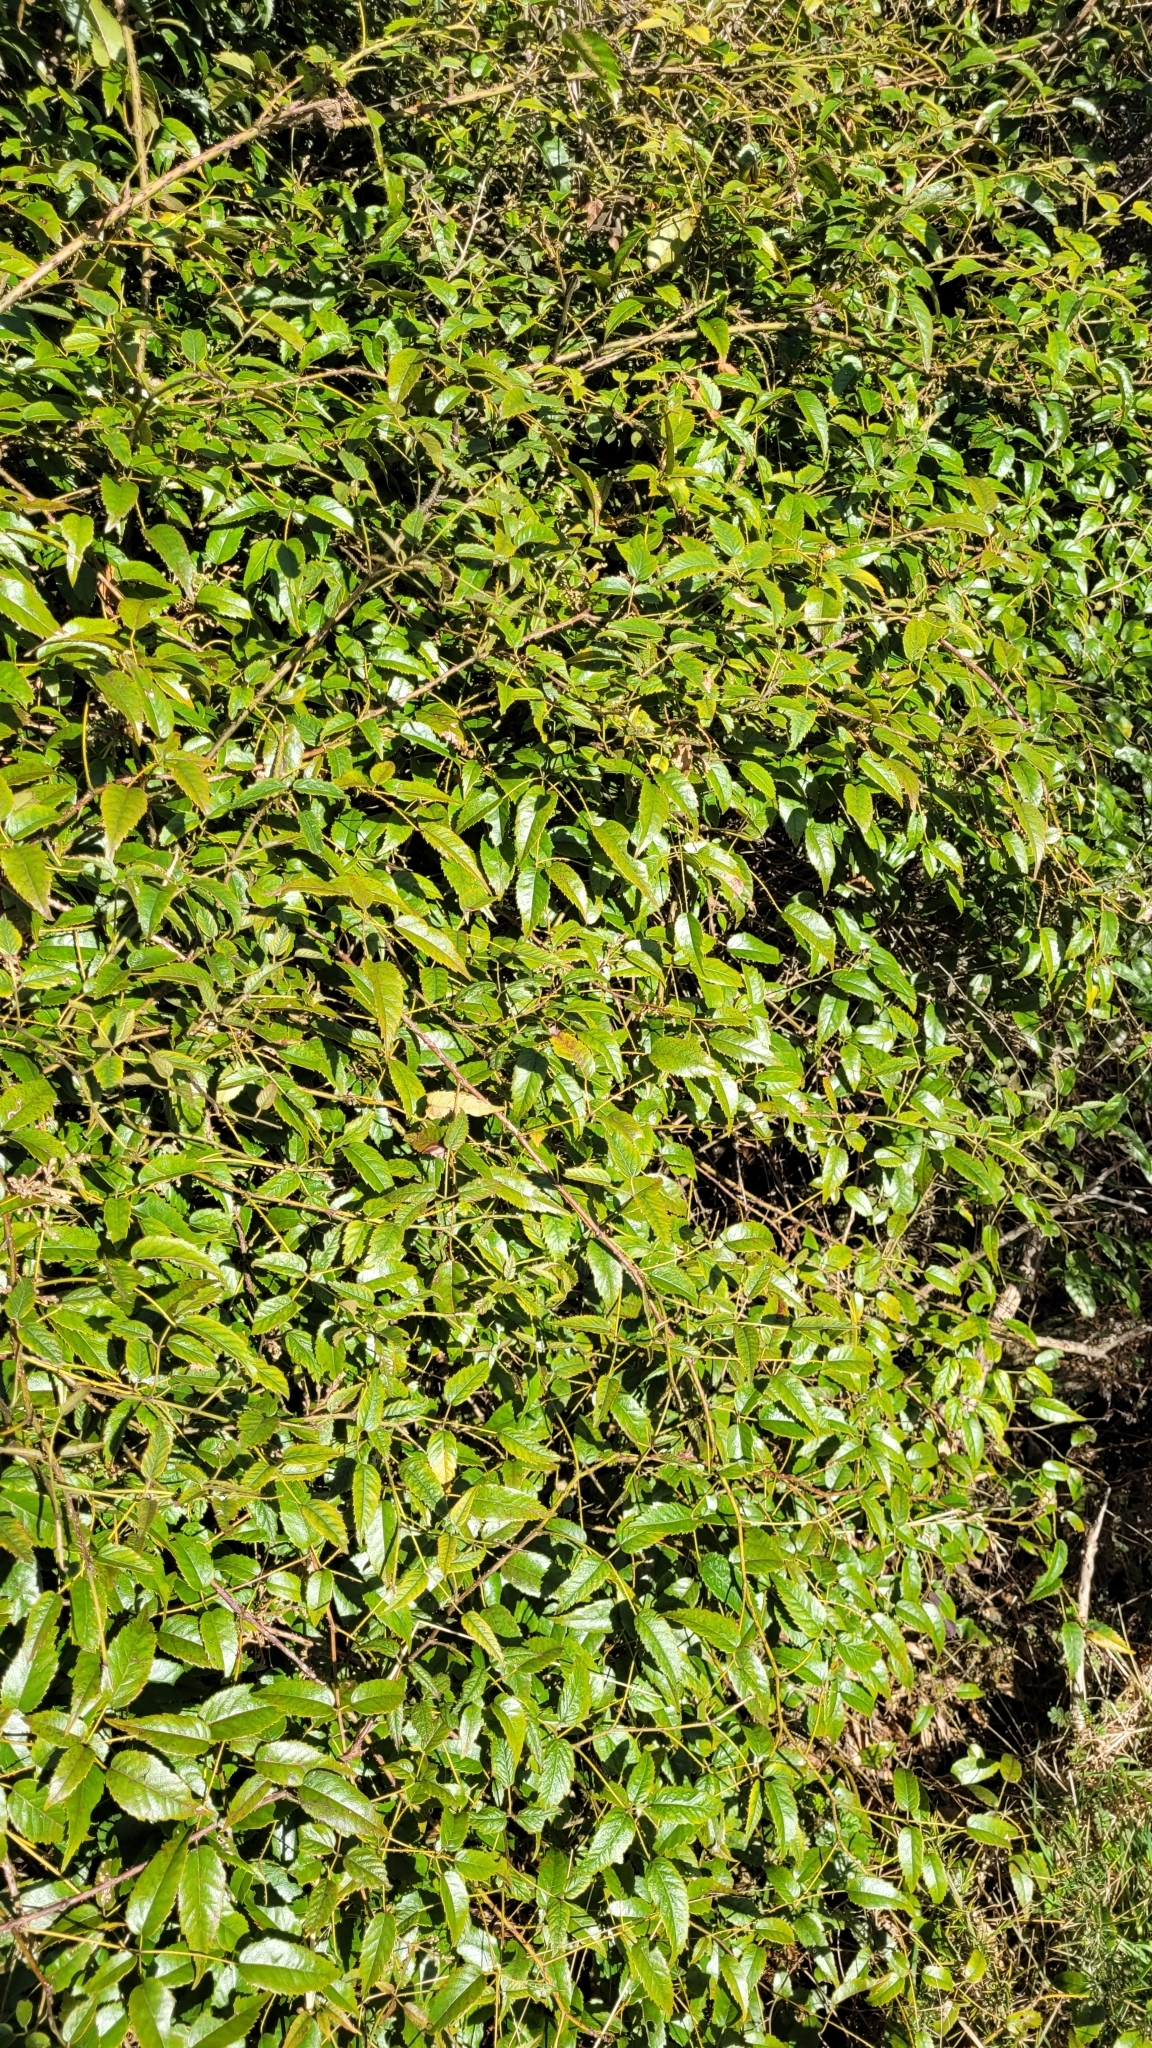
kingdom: Plantae
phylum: Tracheophyta
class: Magnoliopsida
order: Rosales
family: Rosaceae
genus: Rubus
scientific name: Rubus cissoides
